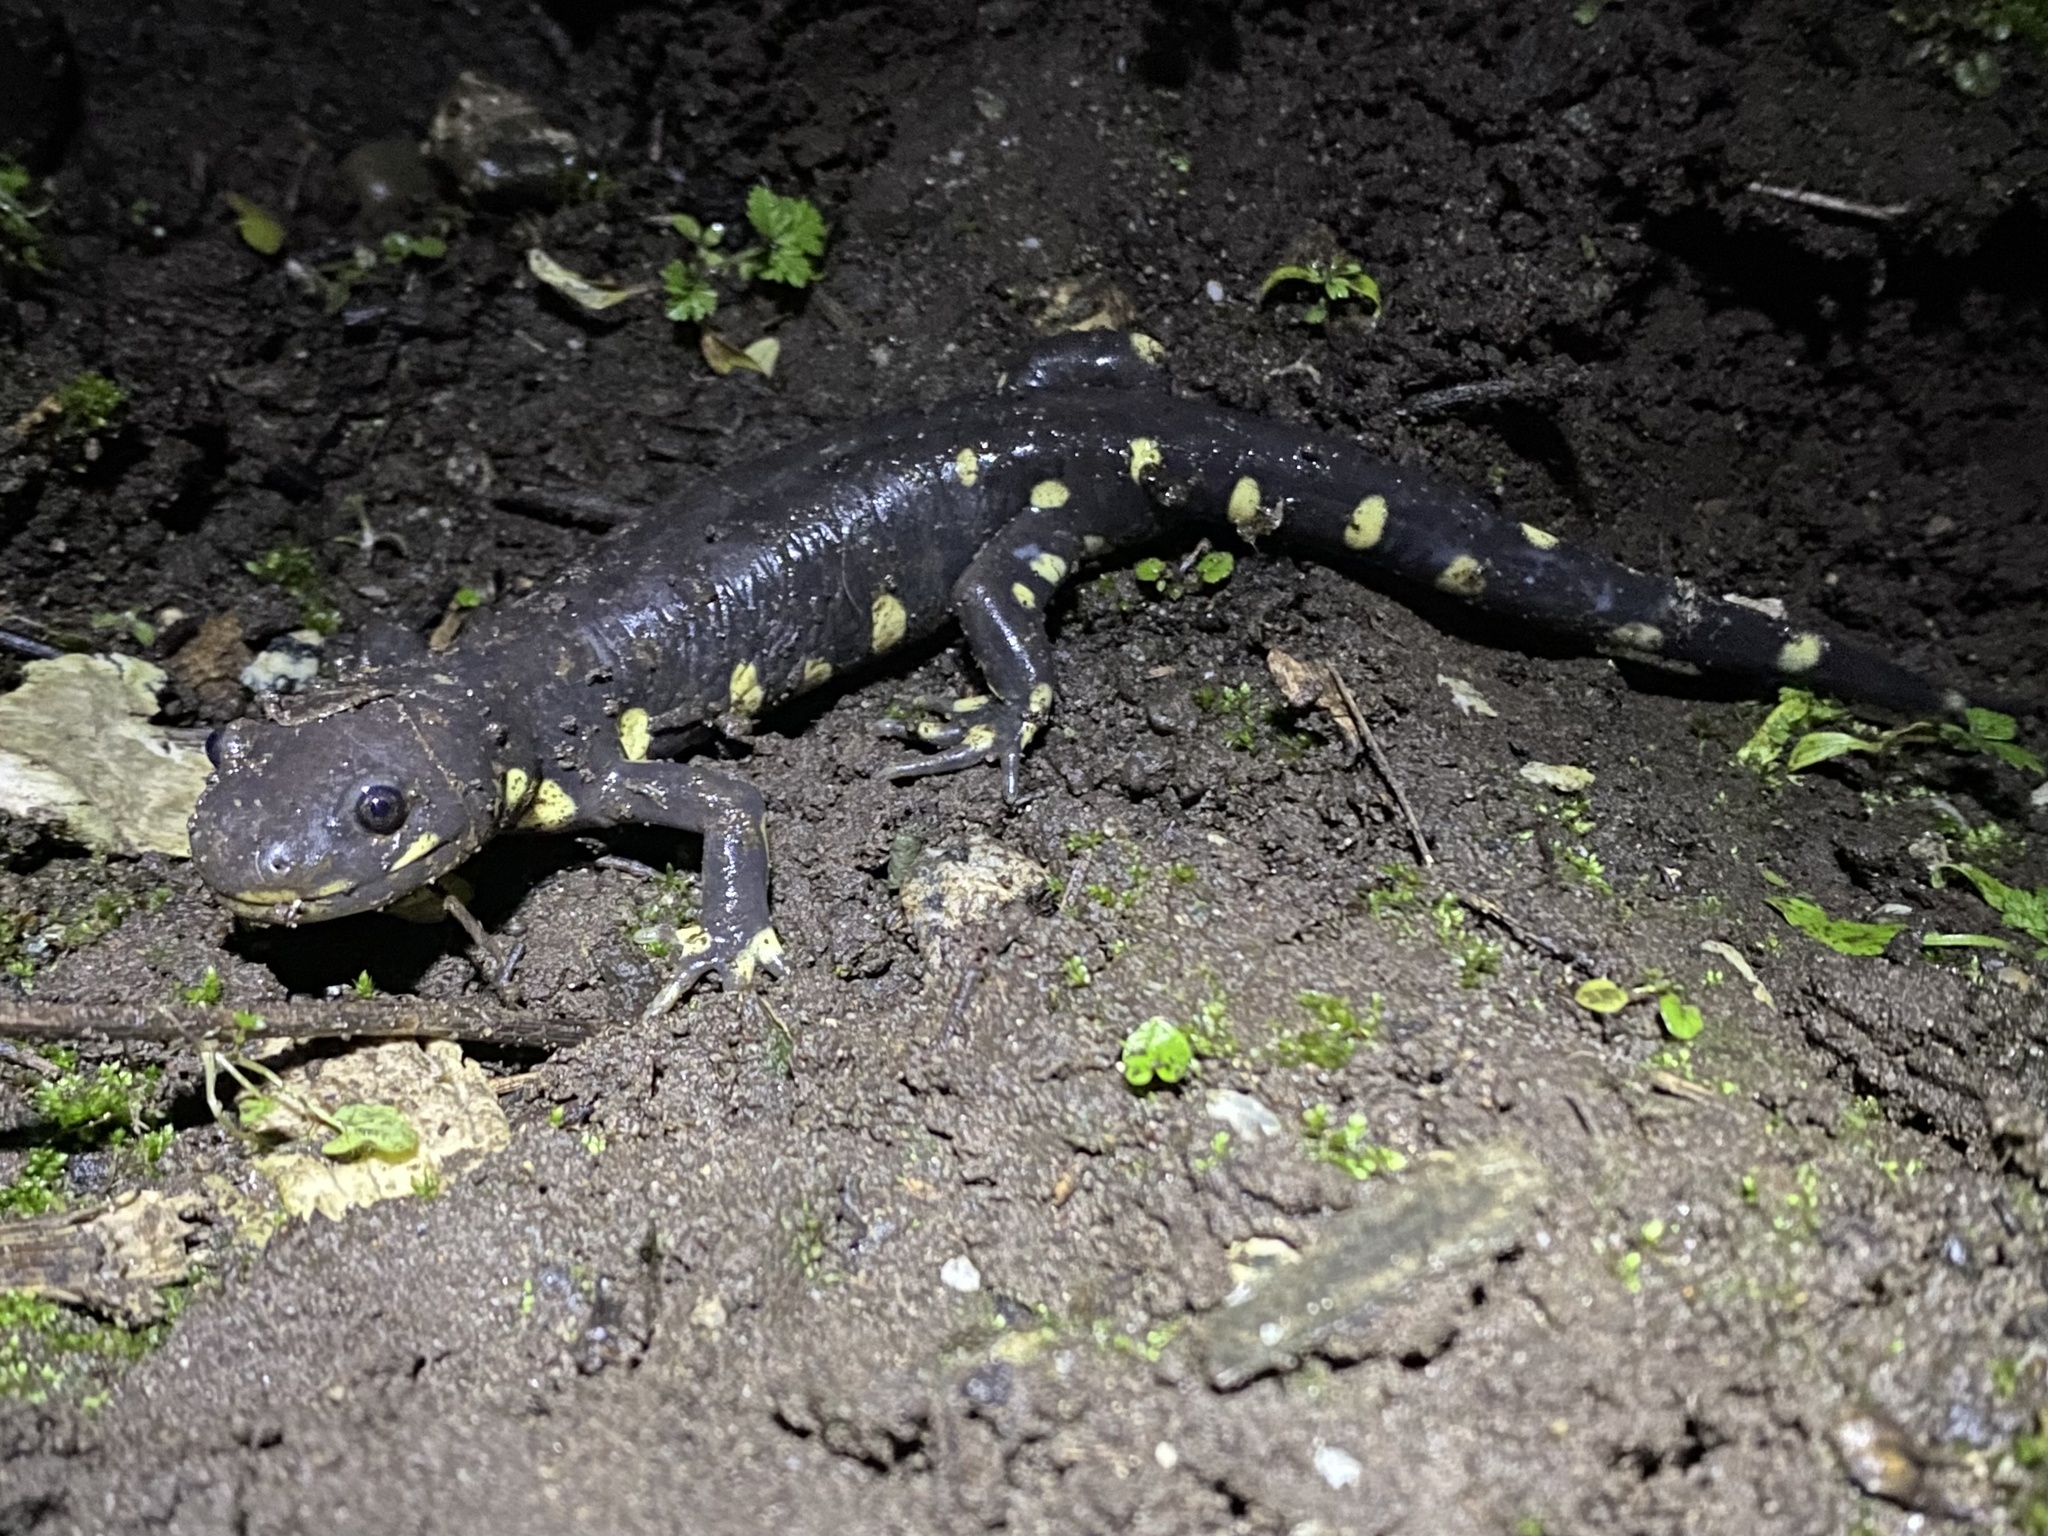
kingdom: Animalia
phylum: Chordata
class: Amphibia
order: Caudata
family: Ambystomatidae
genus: Ambystoma
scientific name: Ambystoma californiense
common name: California tiger salamander
